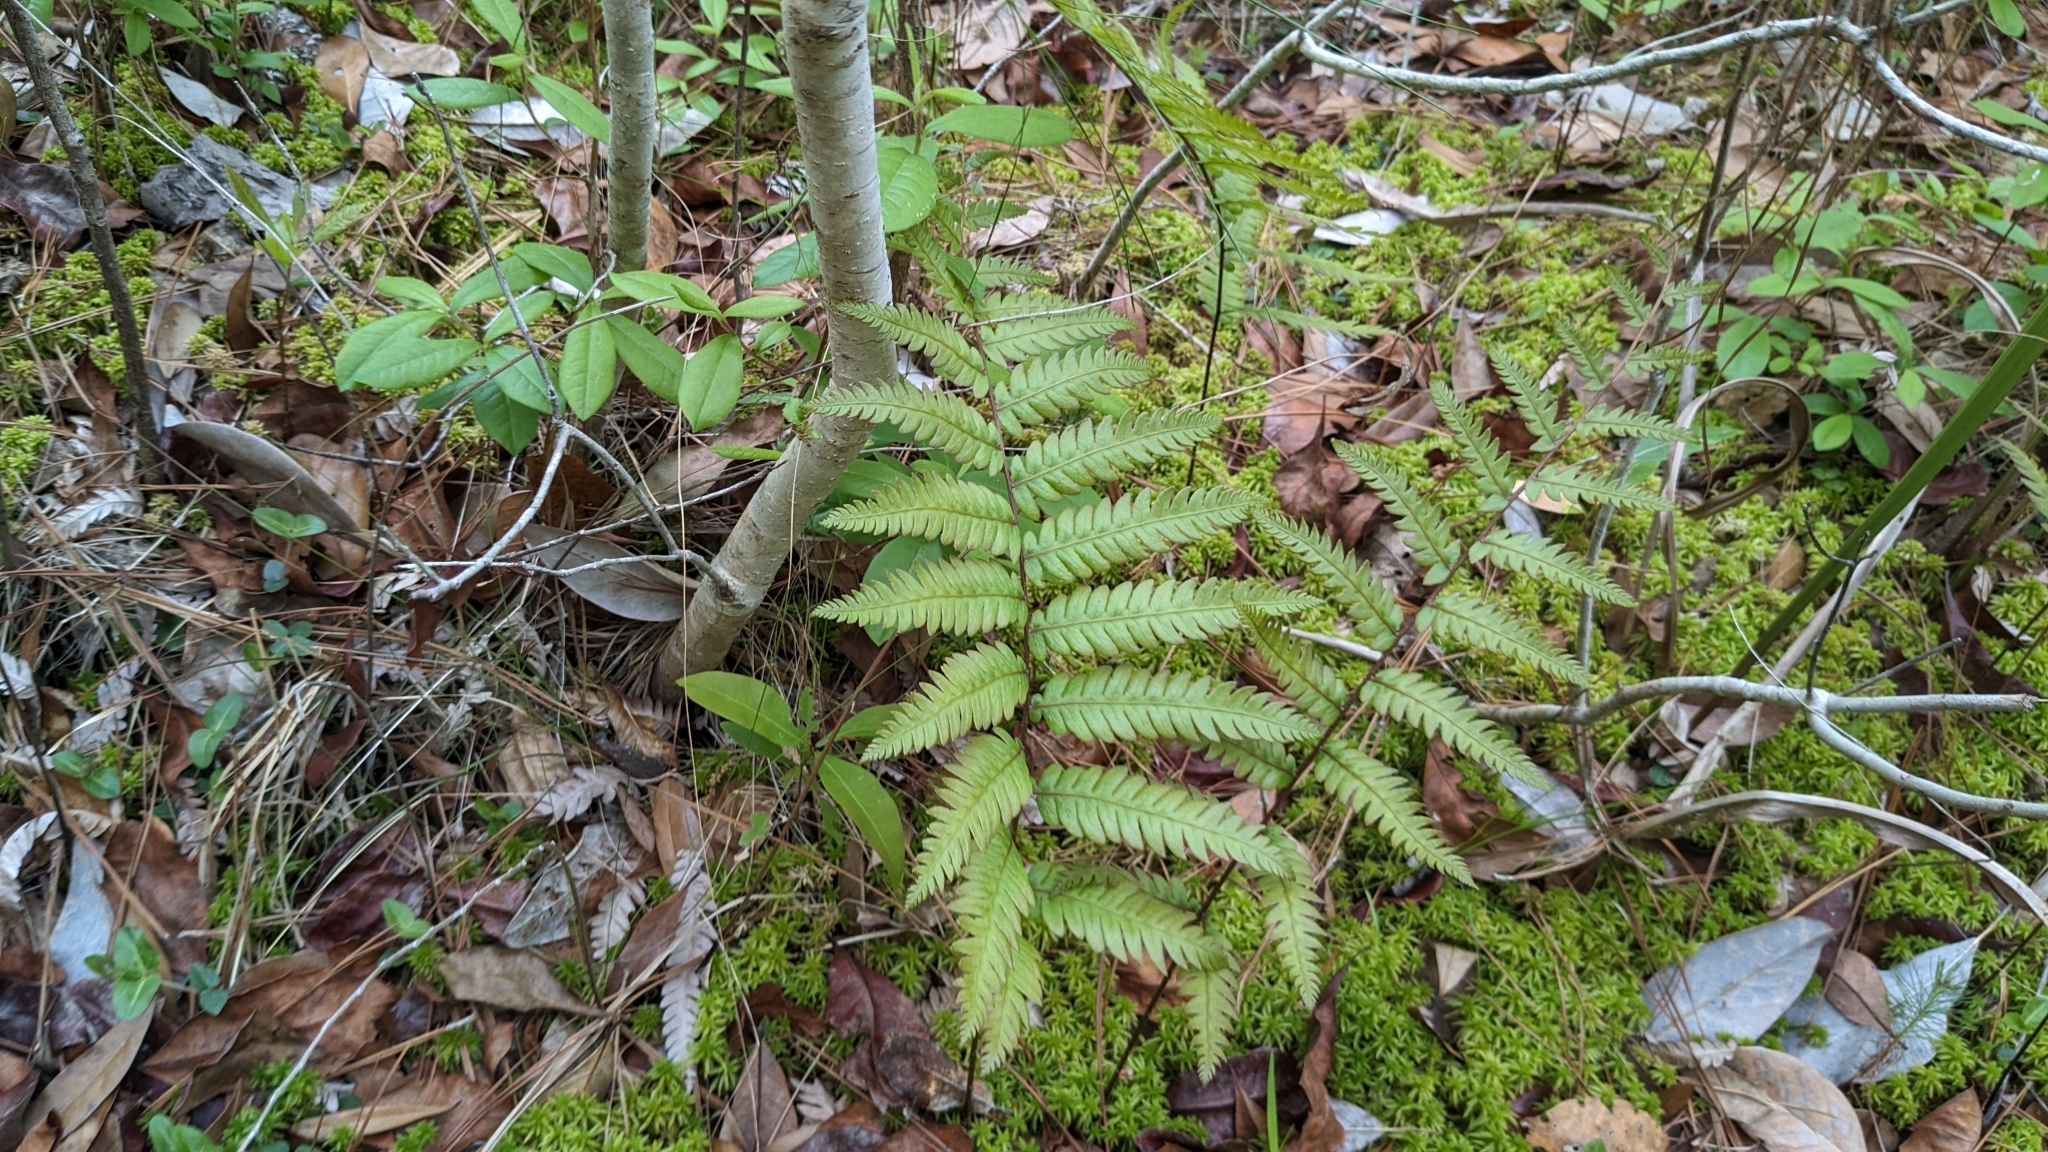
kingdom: Plantae
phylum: Tracheophyta
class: Polypodiopsida
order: Polypodiales
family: Blechnaceae
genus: Anchistea
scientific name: Anchistea virginica
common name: Virginia chain fern
